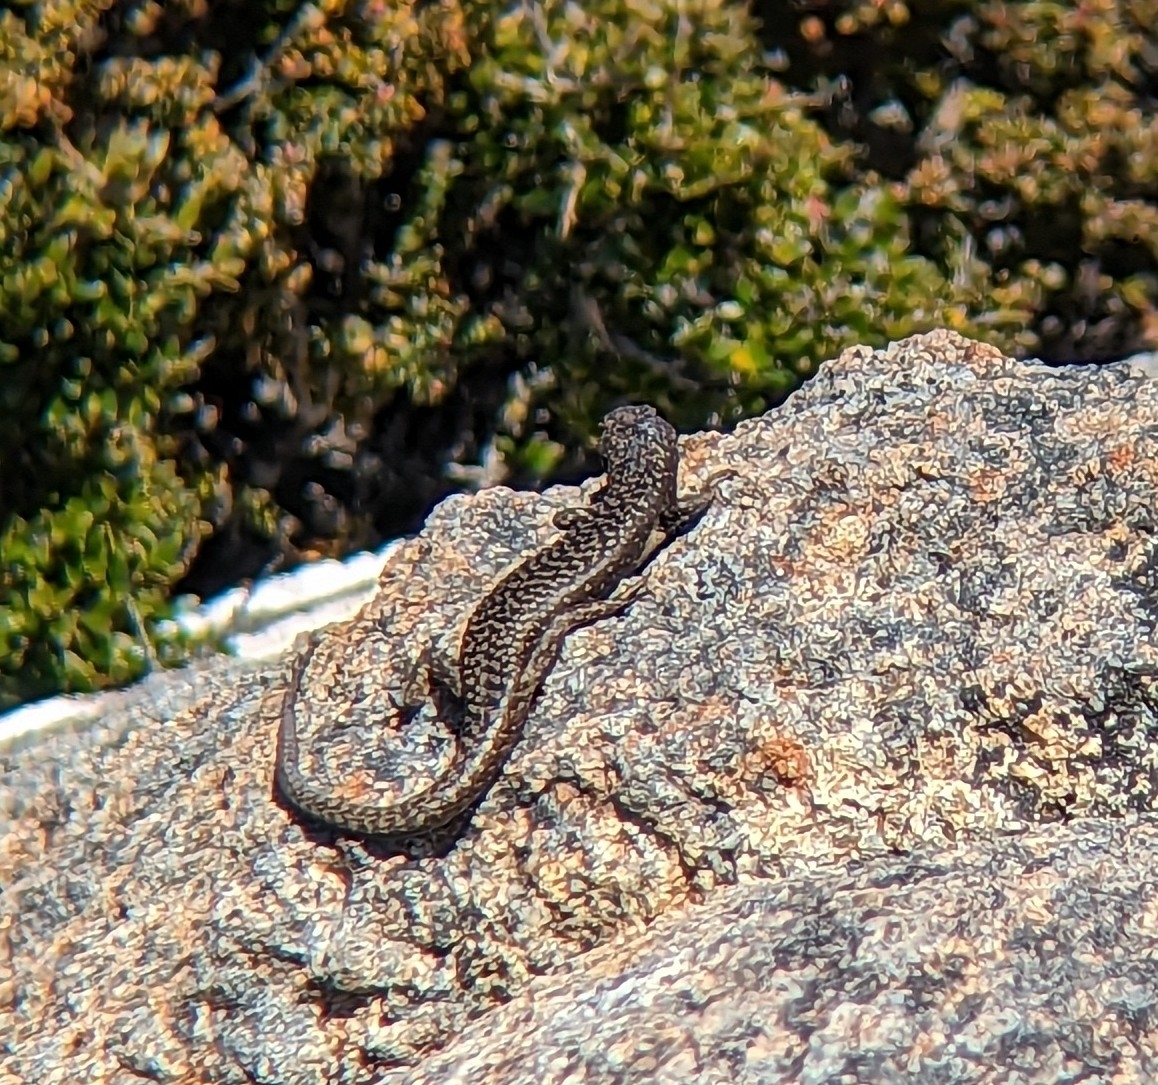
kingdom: Animalia
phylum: Chordata
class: Squamata
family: Scincidae
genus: Carinascincus
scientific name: Carinascincus ocellatus
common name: Ocellated cool-skink
